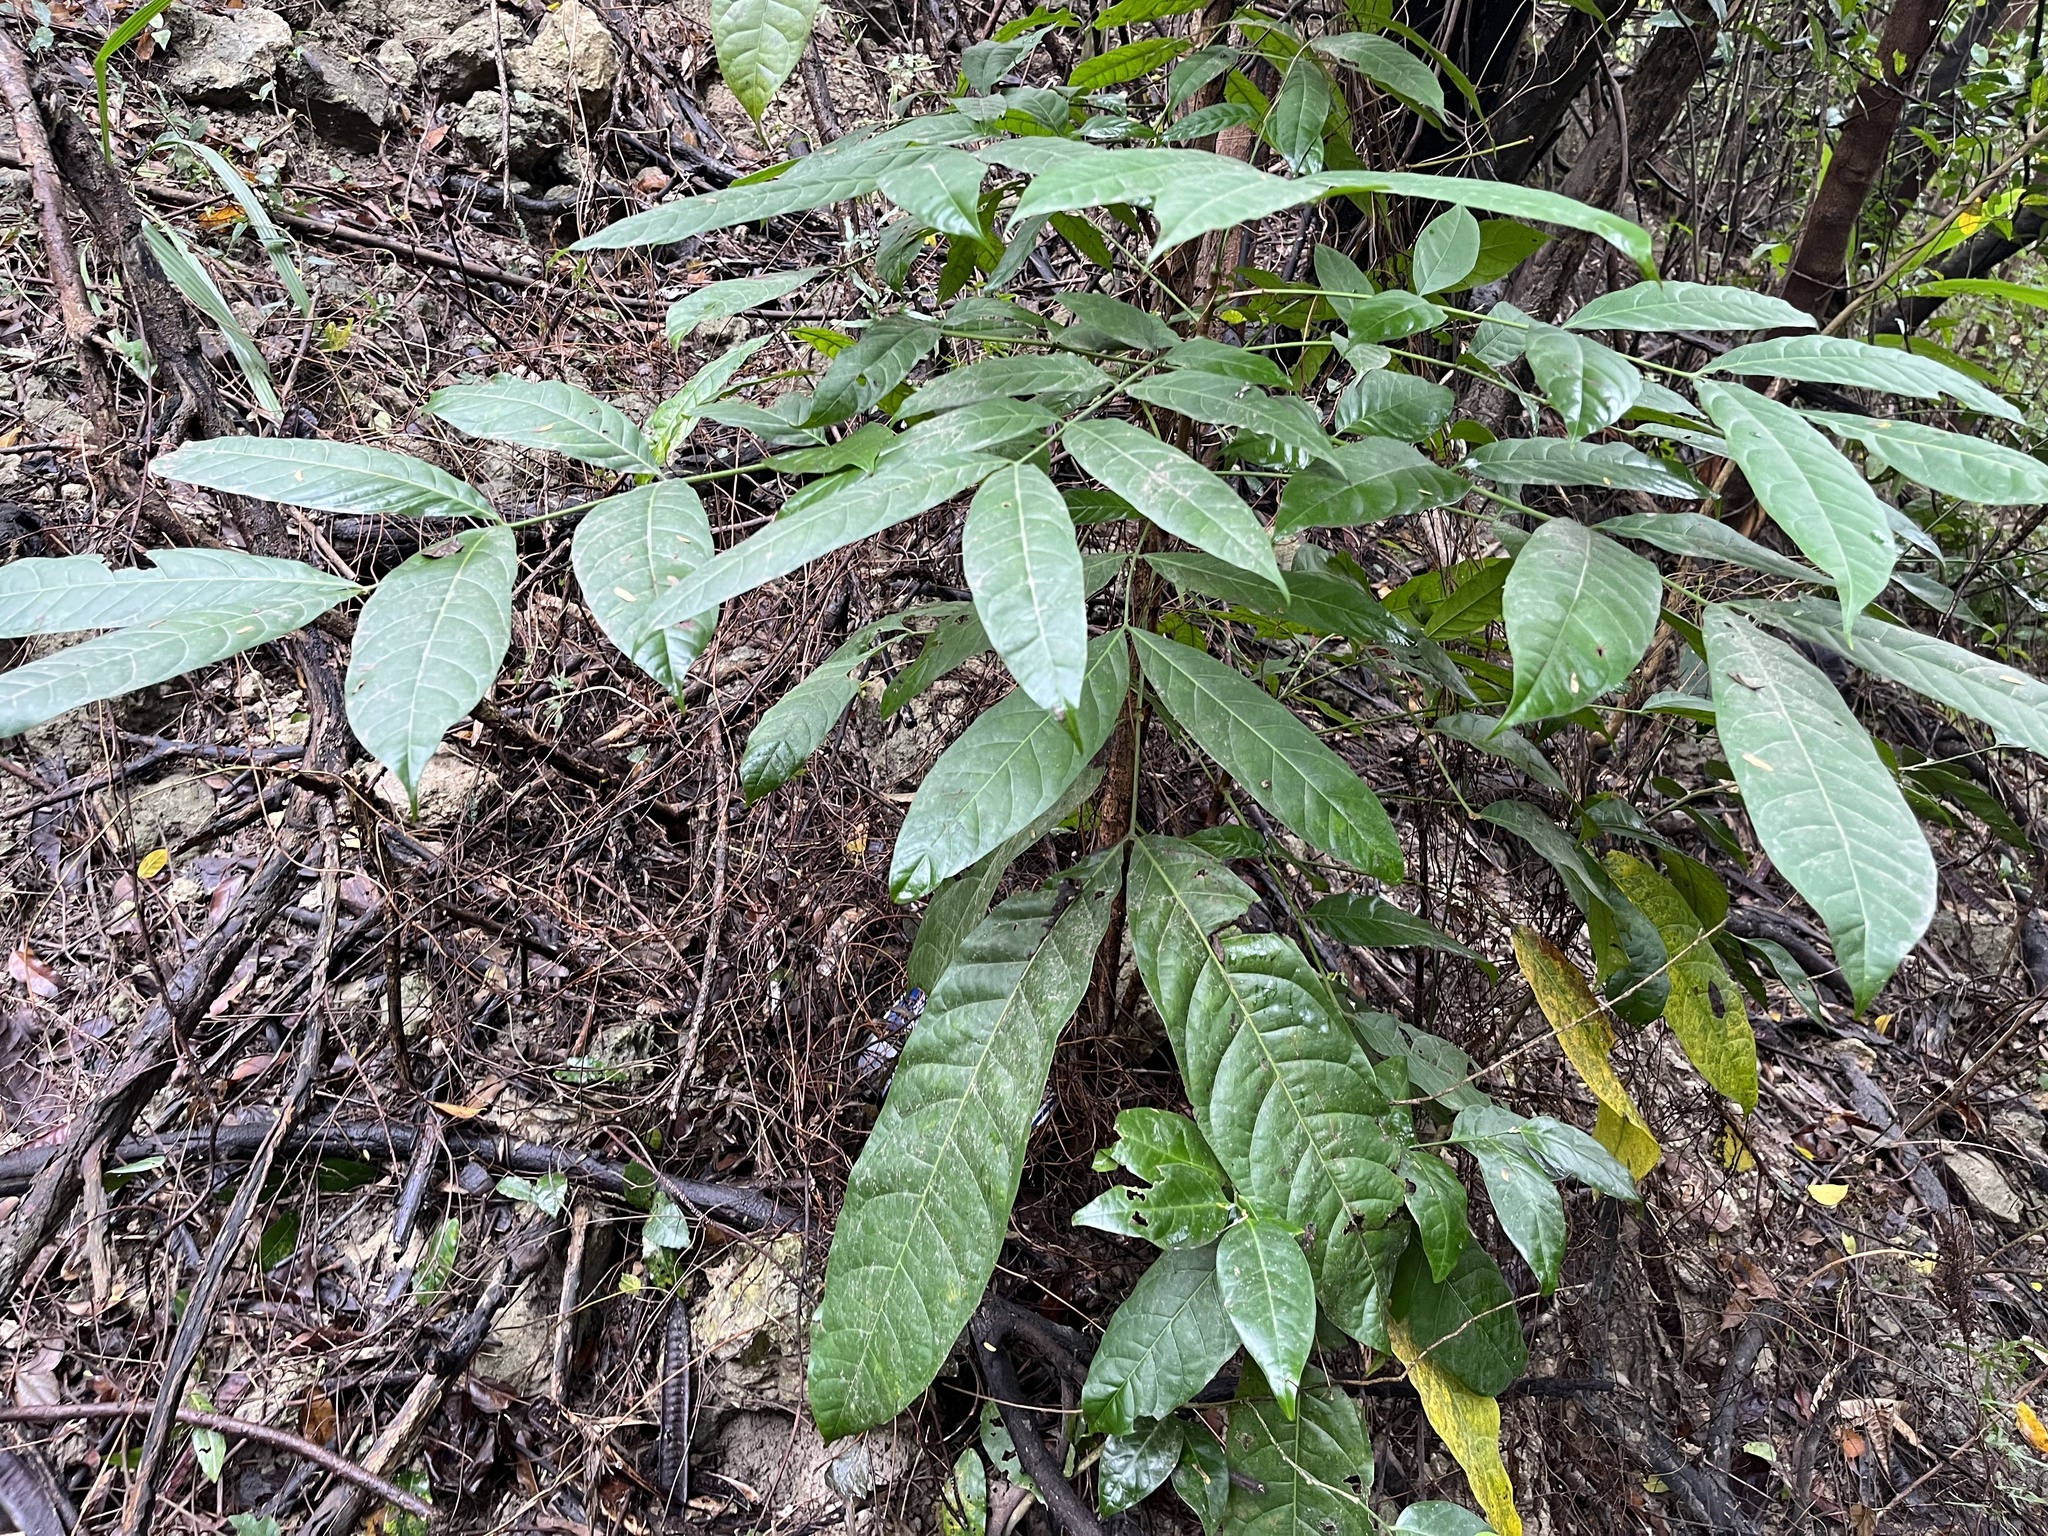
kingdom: Plantae
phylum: Tracheophyta
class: Magnoliopsida
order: Sapindales
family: Meliaceae
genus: Swietenia
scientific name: Swietenia macrophylla
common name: Honduras mahogany
